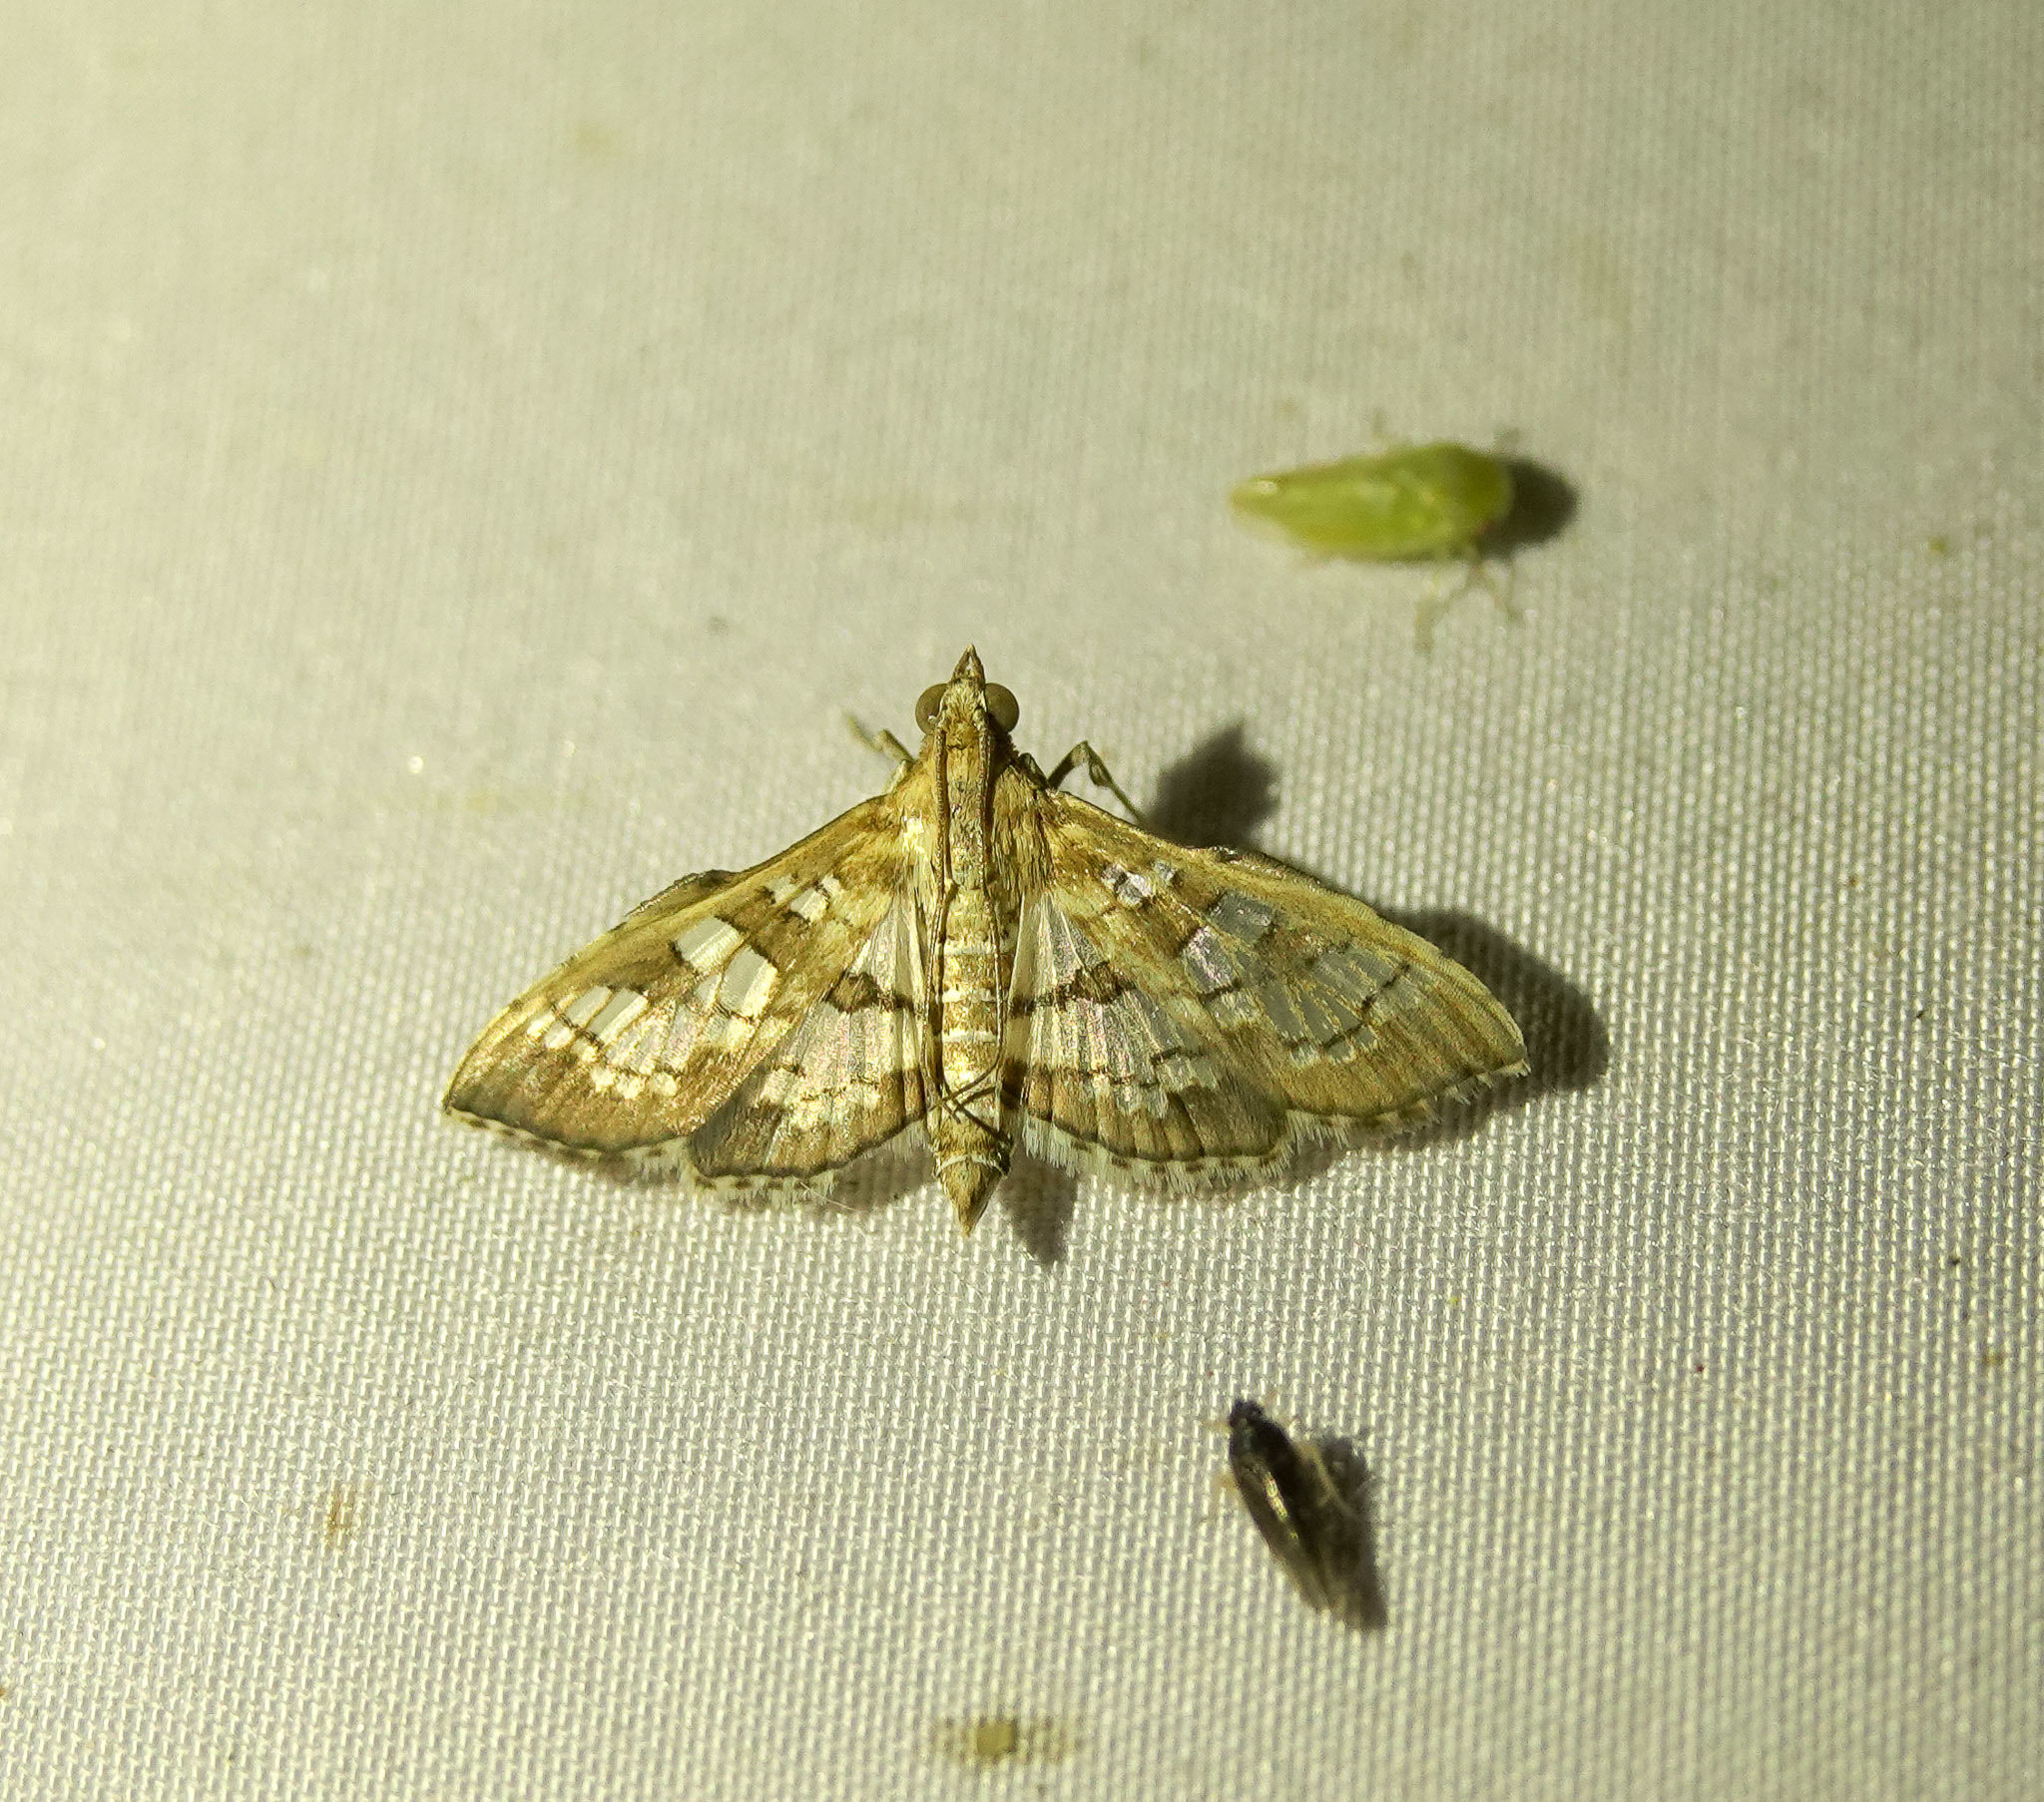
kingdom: Animalia
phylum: Arthropoda
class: Insecta
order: Lepidoptera
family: Crambidae
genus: Sameodes
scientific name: Sameodes cancellalis
